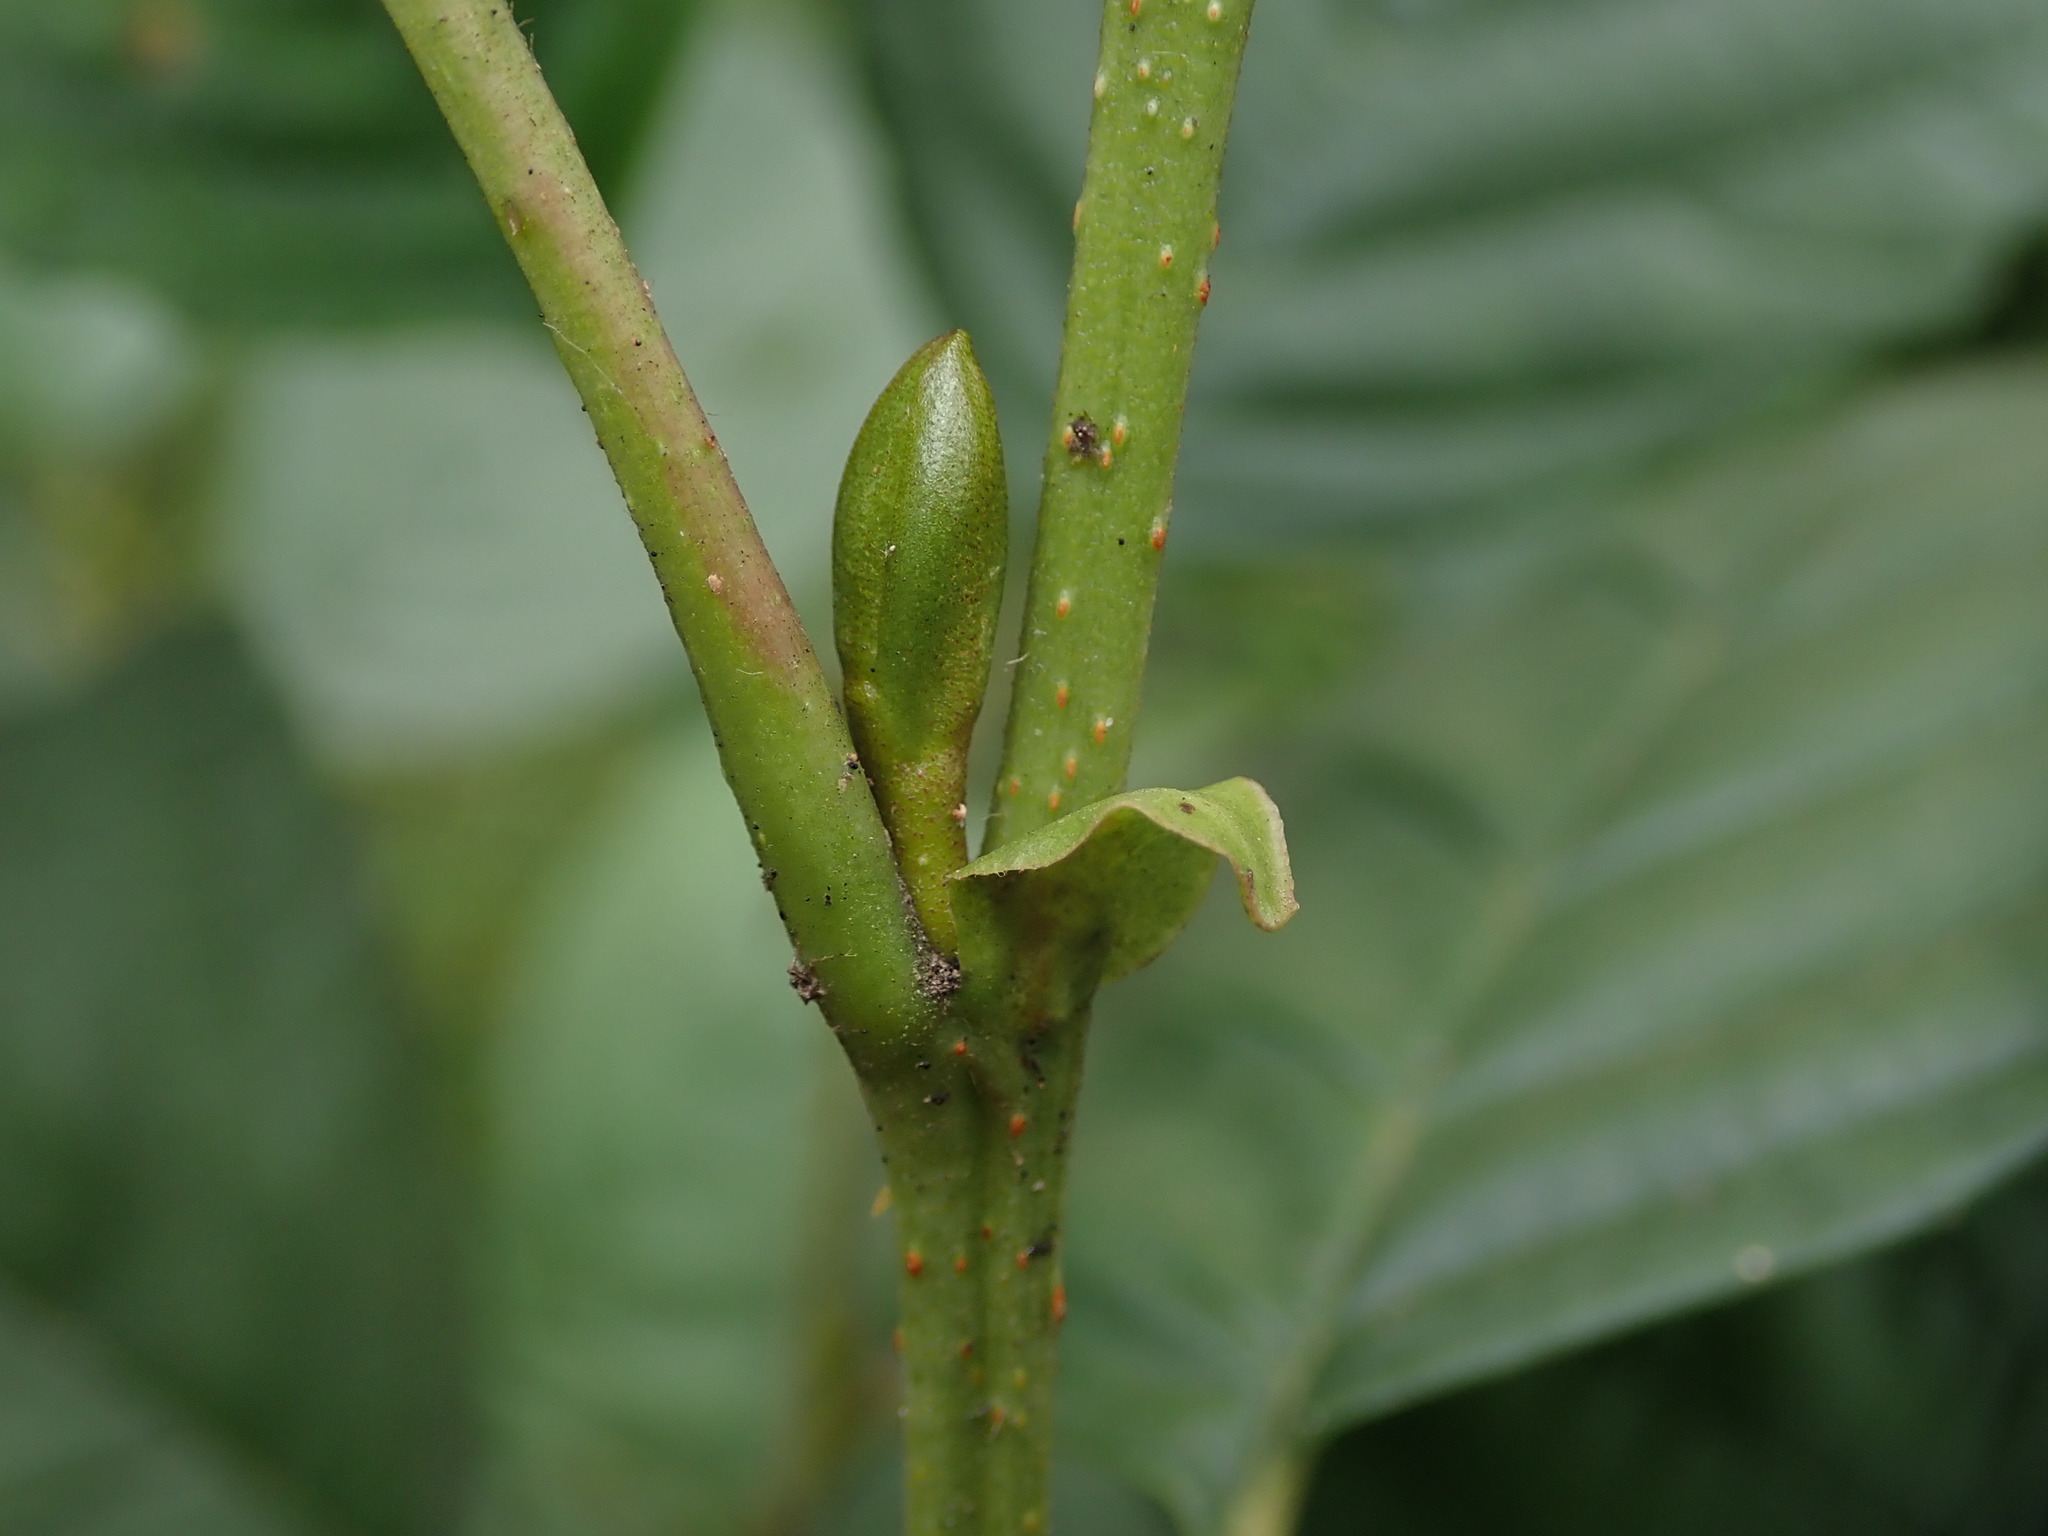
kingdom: Plantae
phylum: Tracheophyta
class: Magnoliopsida
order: Fagales
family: Betulaceae
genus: Alnus
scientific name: Alnus glutinosa
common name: Black alder
